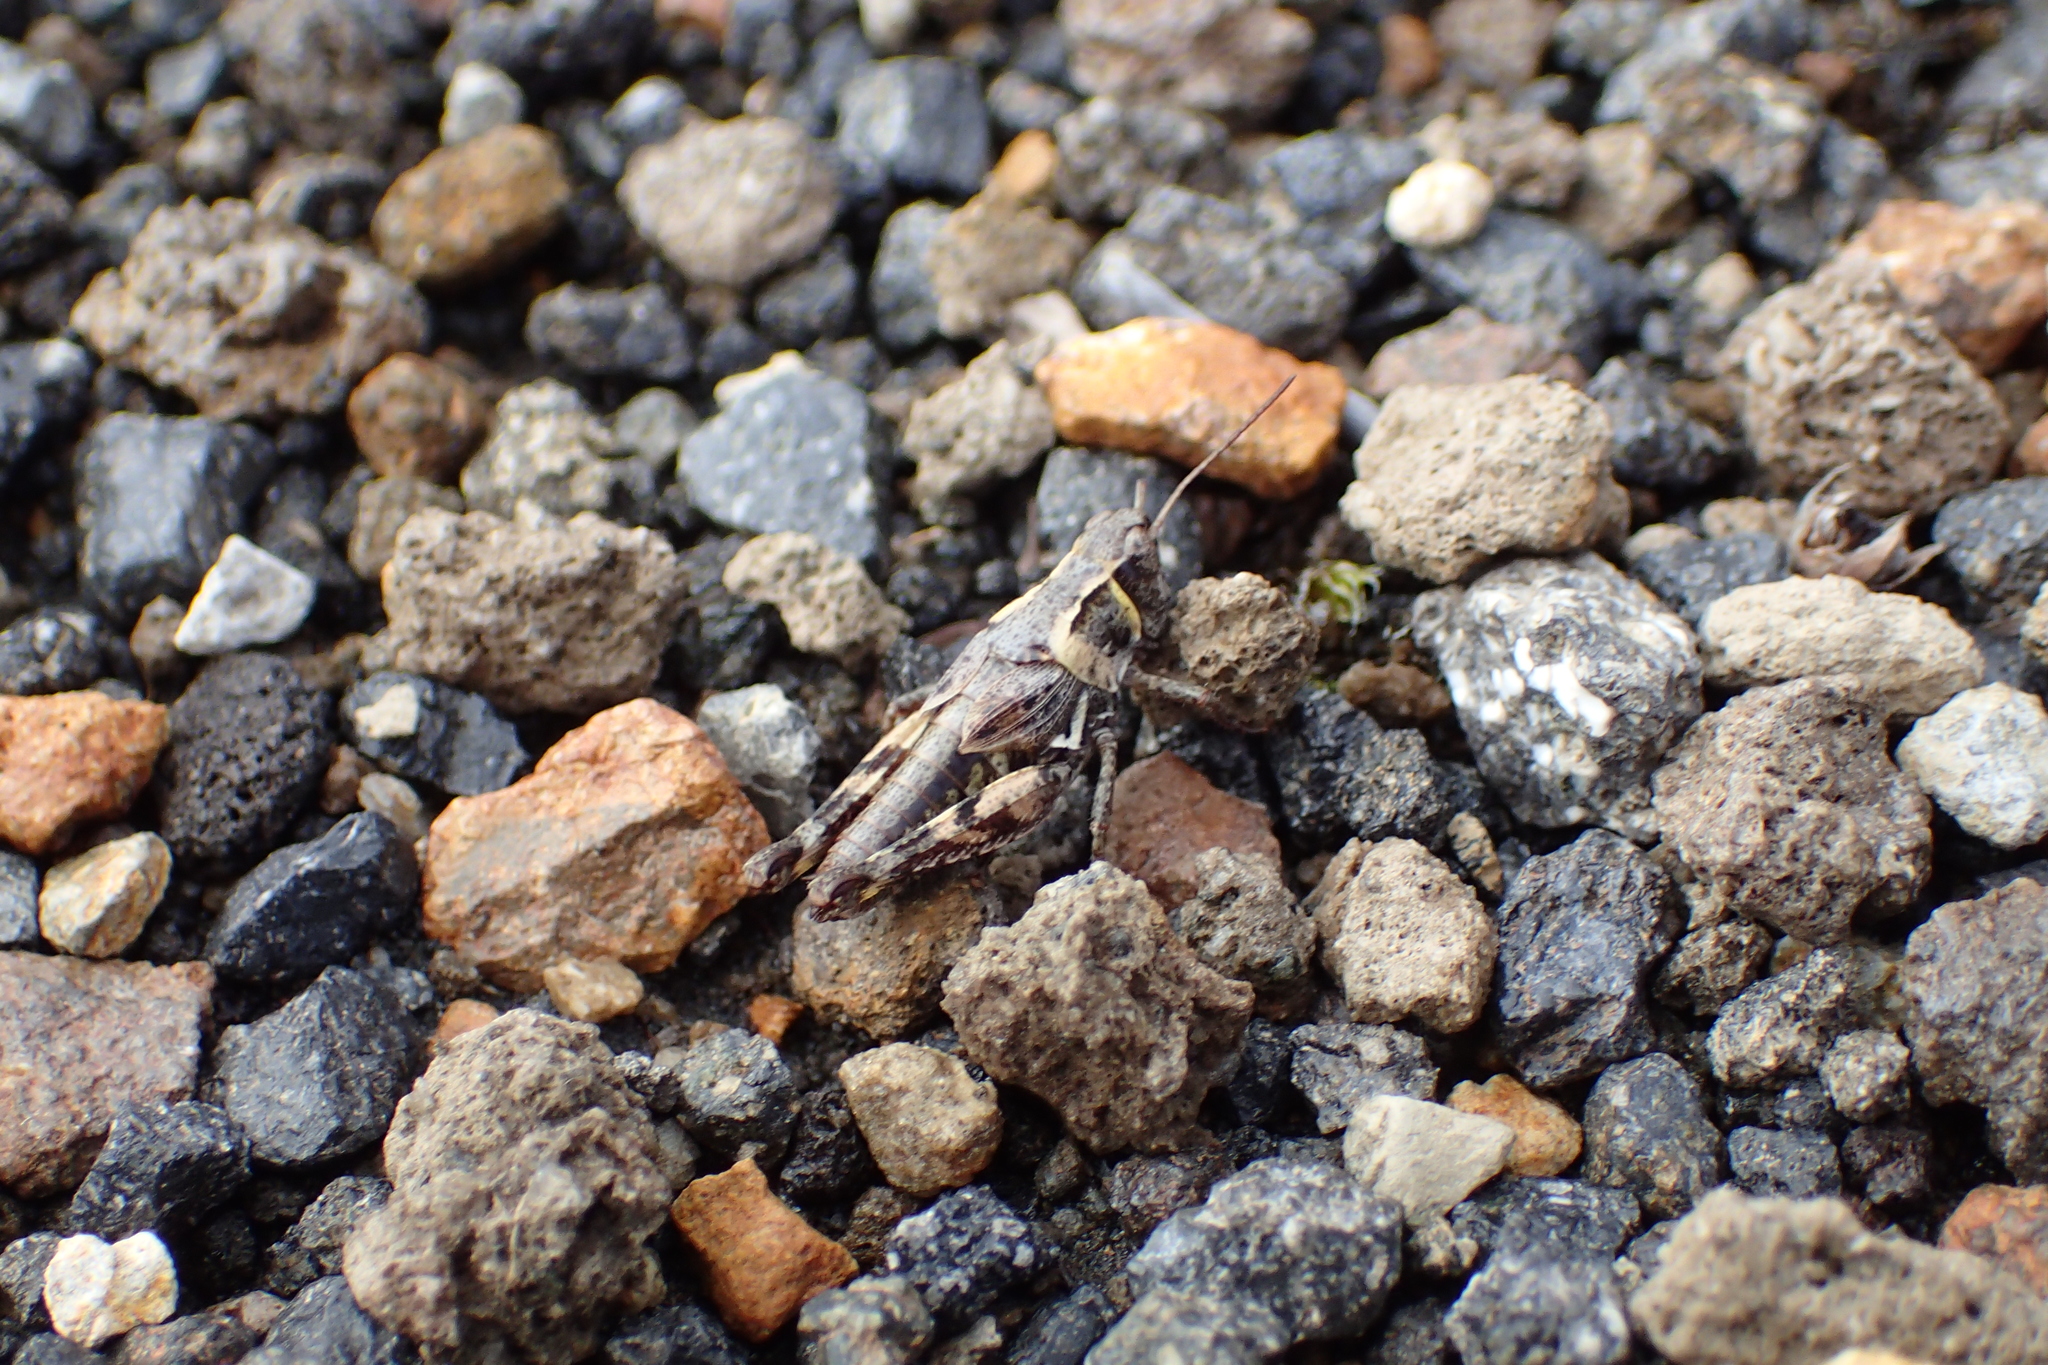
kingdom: Animalia
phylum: Arthropoda
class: Insecta
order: Orthoptera
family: Acrididae
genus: Phaulacridium
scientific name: Phaulacridium marginale
